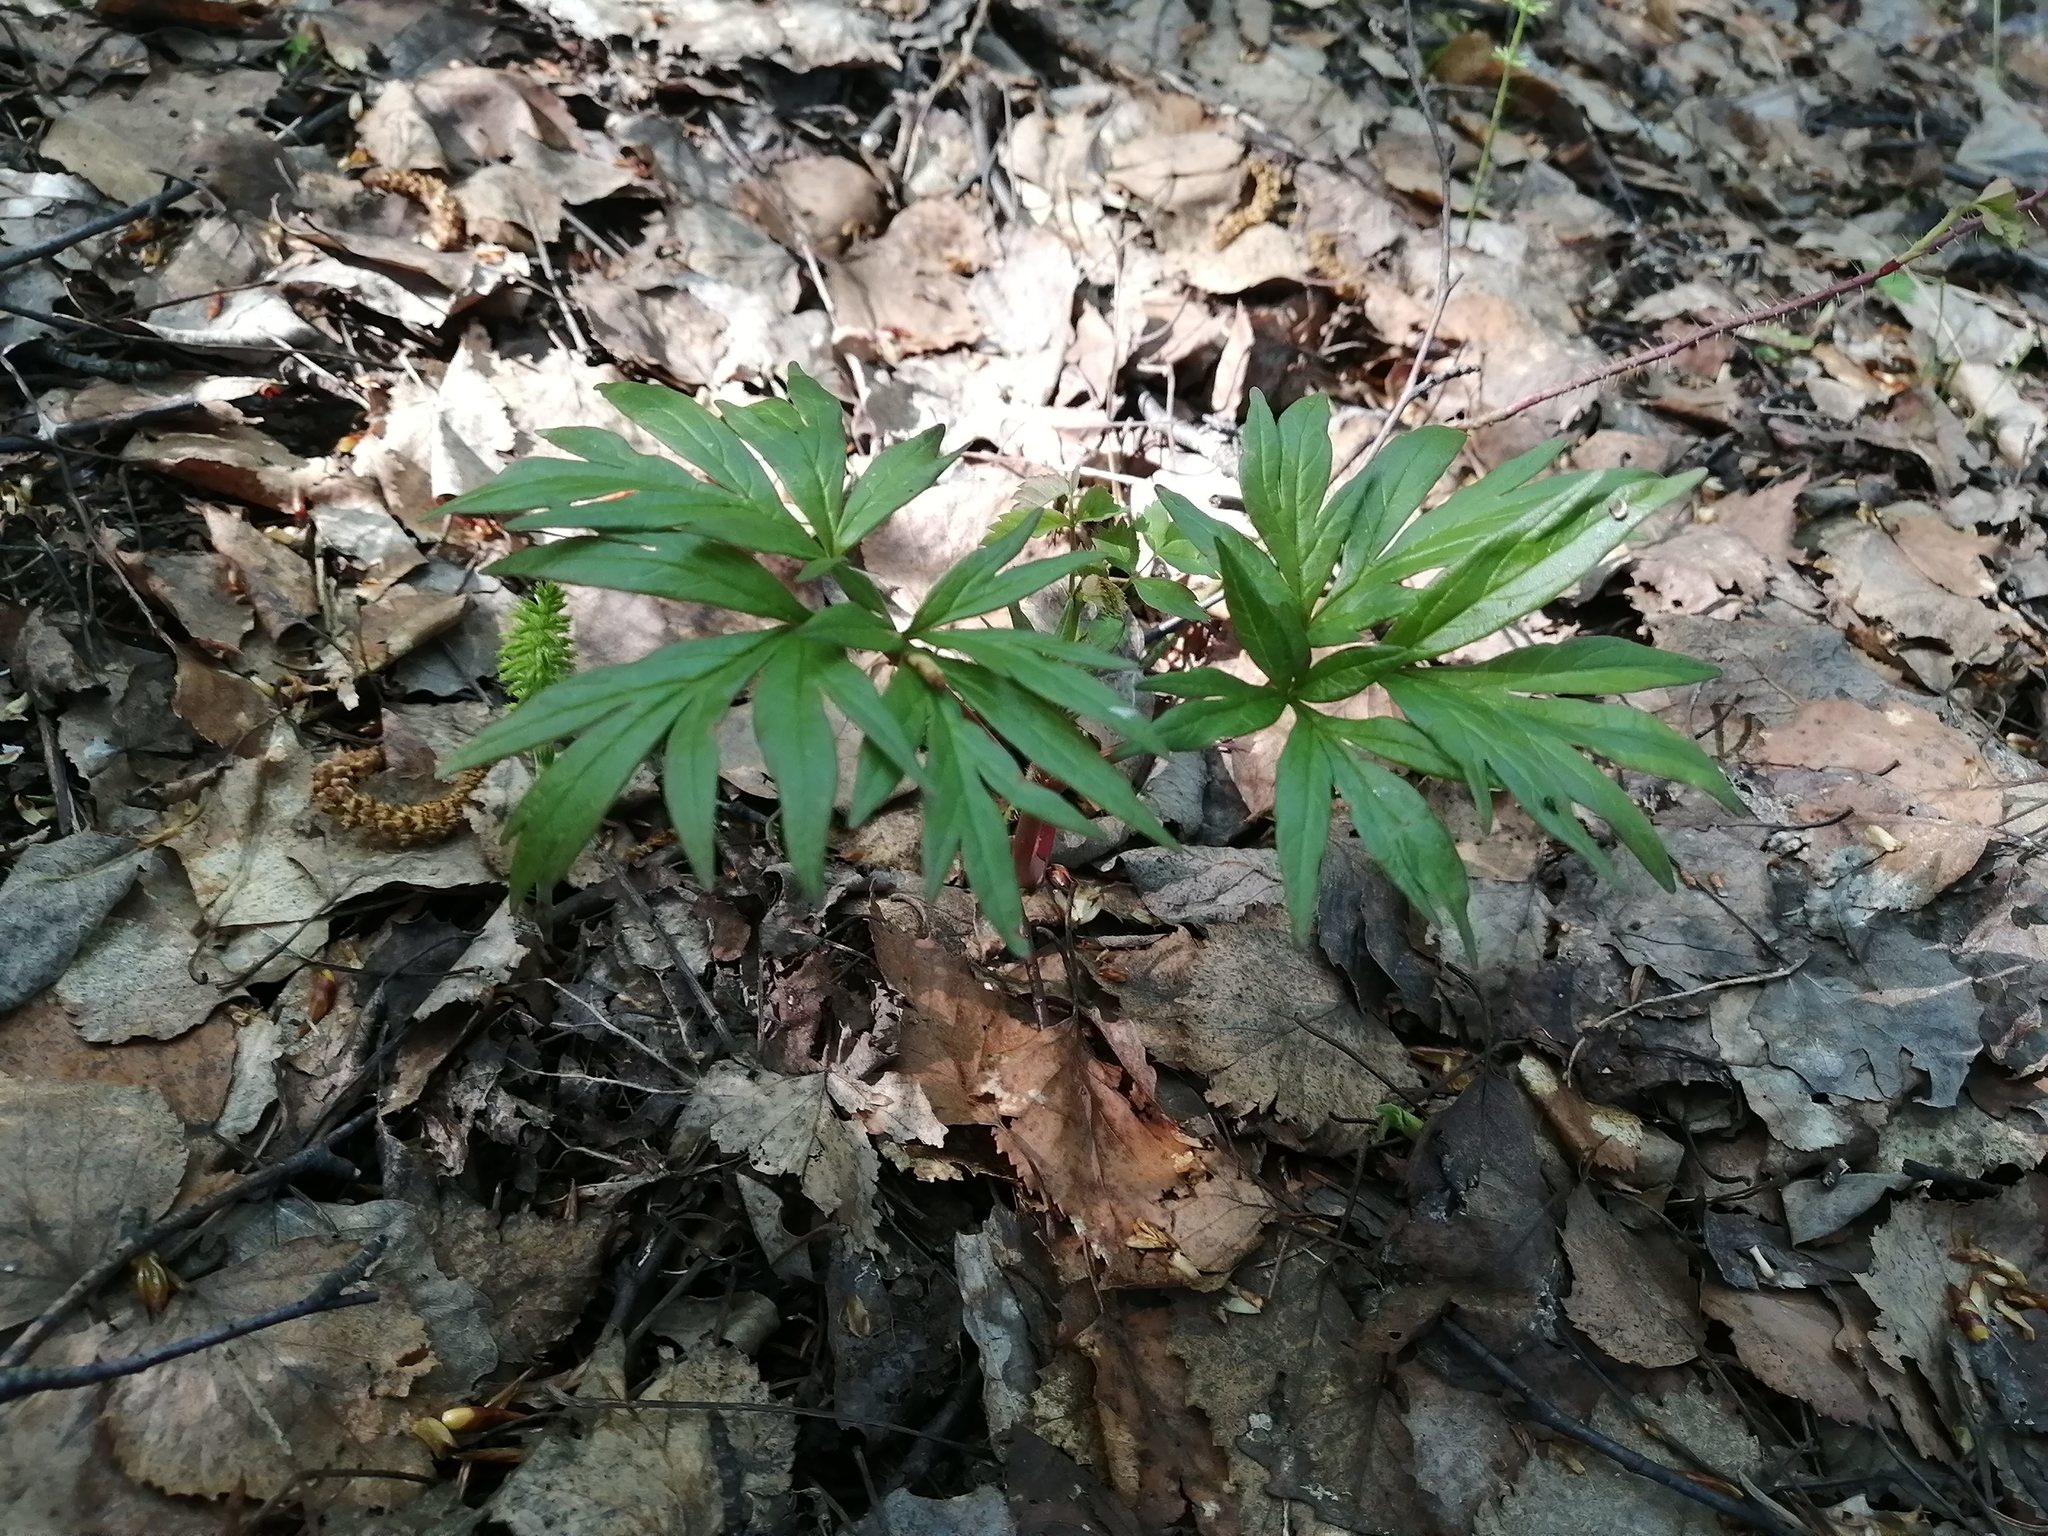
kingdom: Plantae
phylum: Tracheophyta
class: Magnoliopsida
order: Saxifragales
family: Paeoniaceae
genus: Paeonia
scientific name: Paeonia anomala
